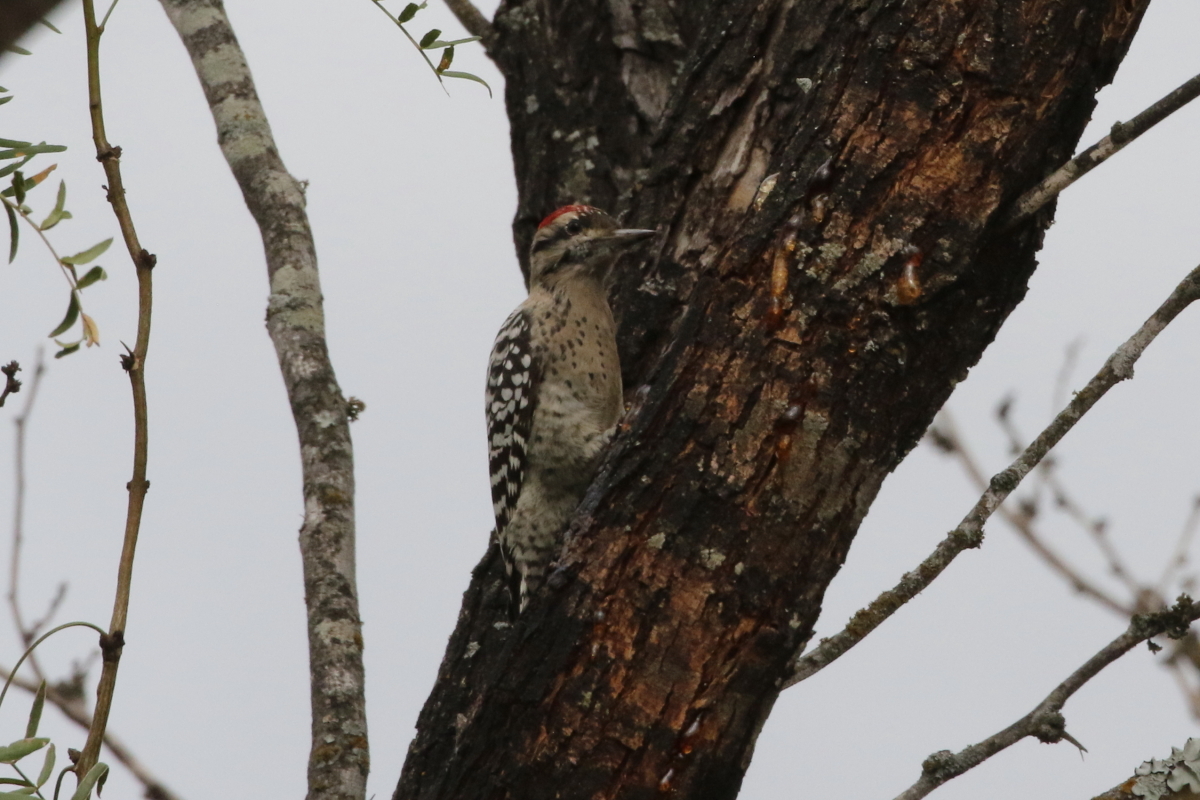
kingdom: Animalia
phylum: Chordata
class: Aves
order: Piciformes
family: Picidae
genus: Dryobates
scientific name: Dryobates scalaris
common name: Ladder-backed woodpecker
